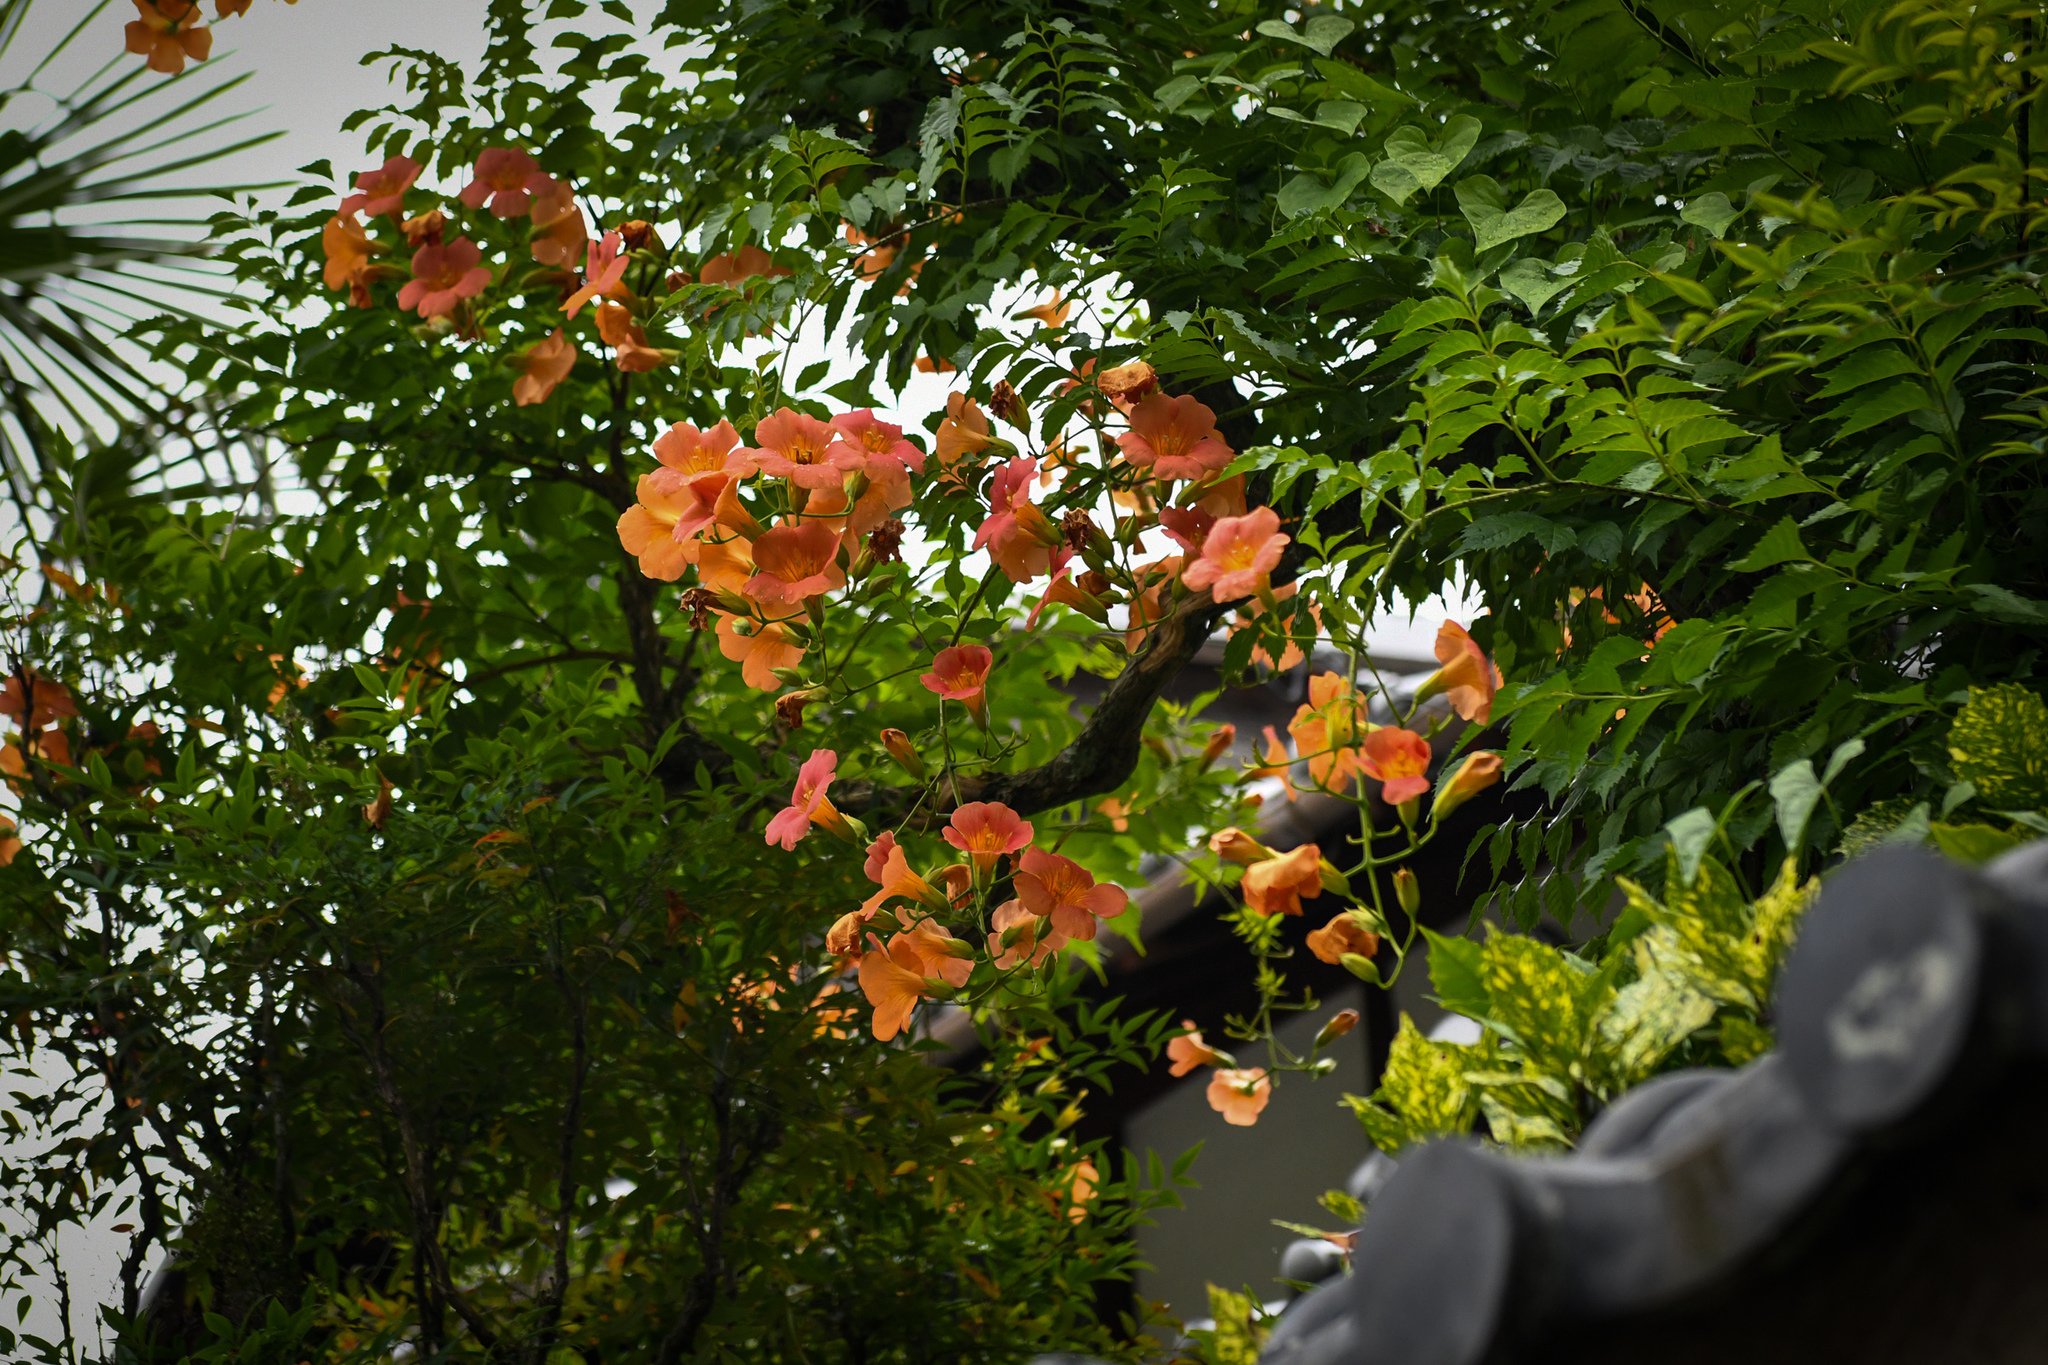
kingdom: Plantae
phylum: Tracheophyta
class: Magnoliopsida
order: Lamiales
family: Bignoniaceae
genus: Campsis
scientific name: Campsis grandiflora
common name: Chinese trumpet-creeper
